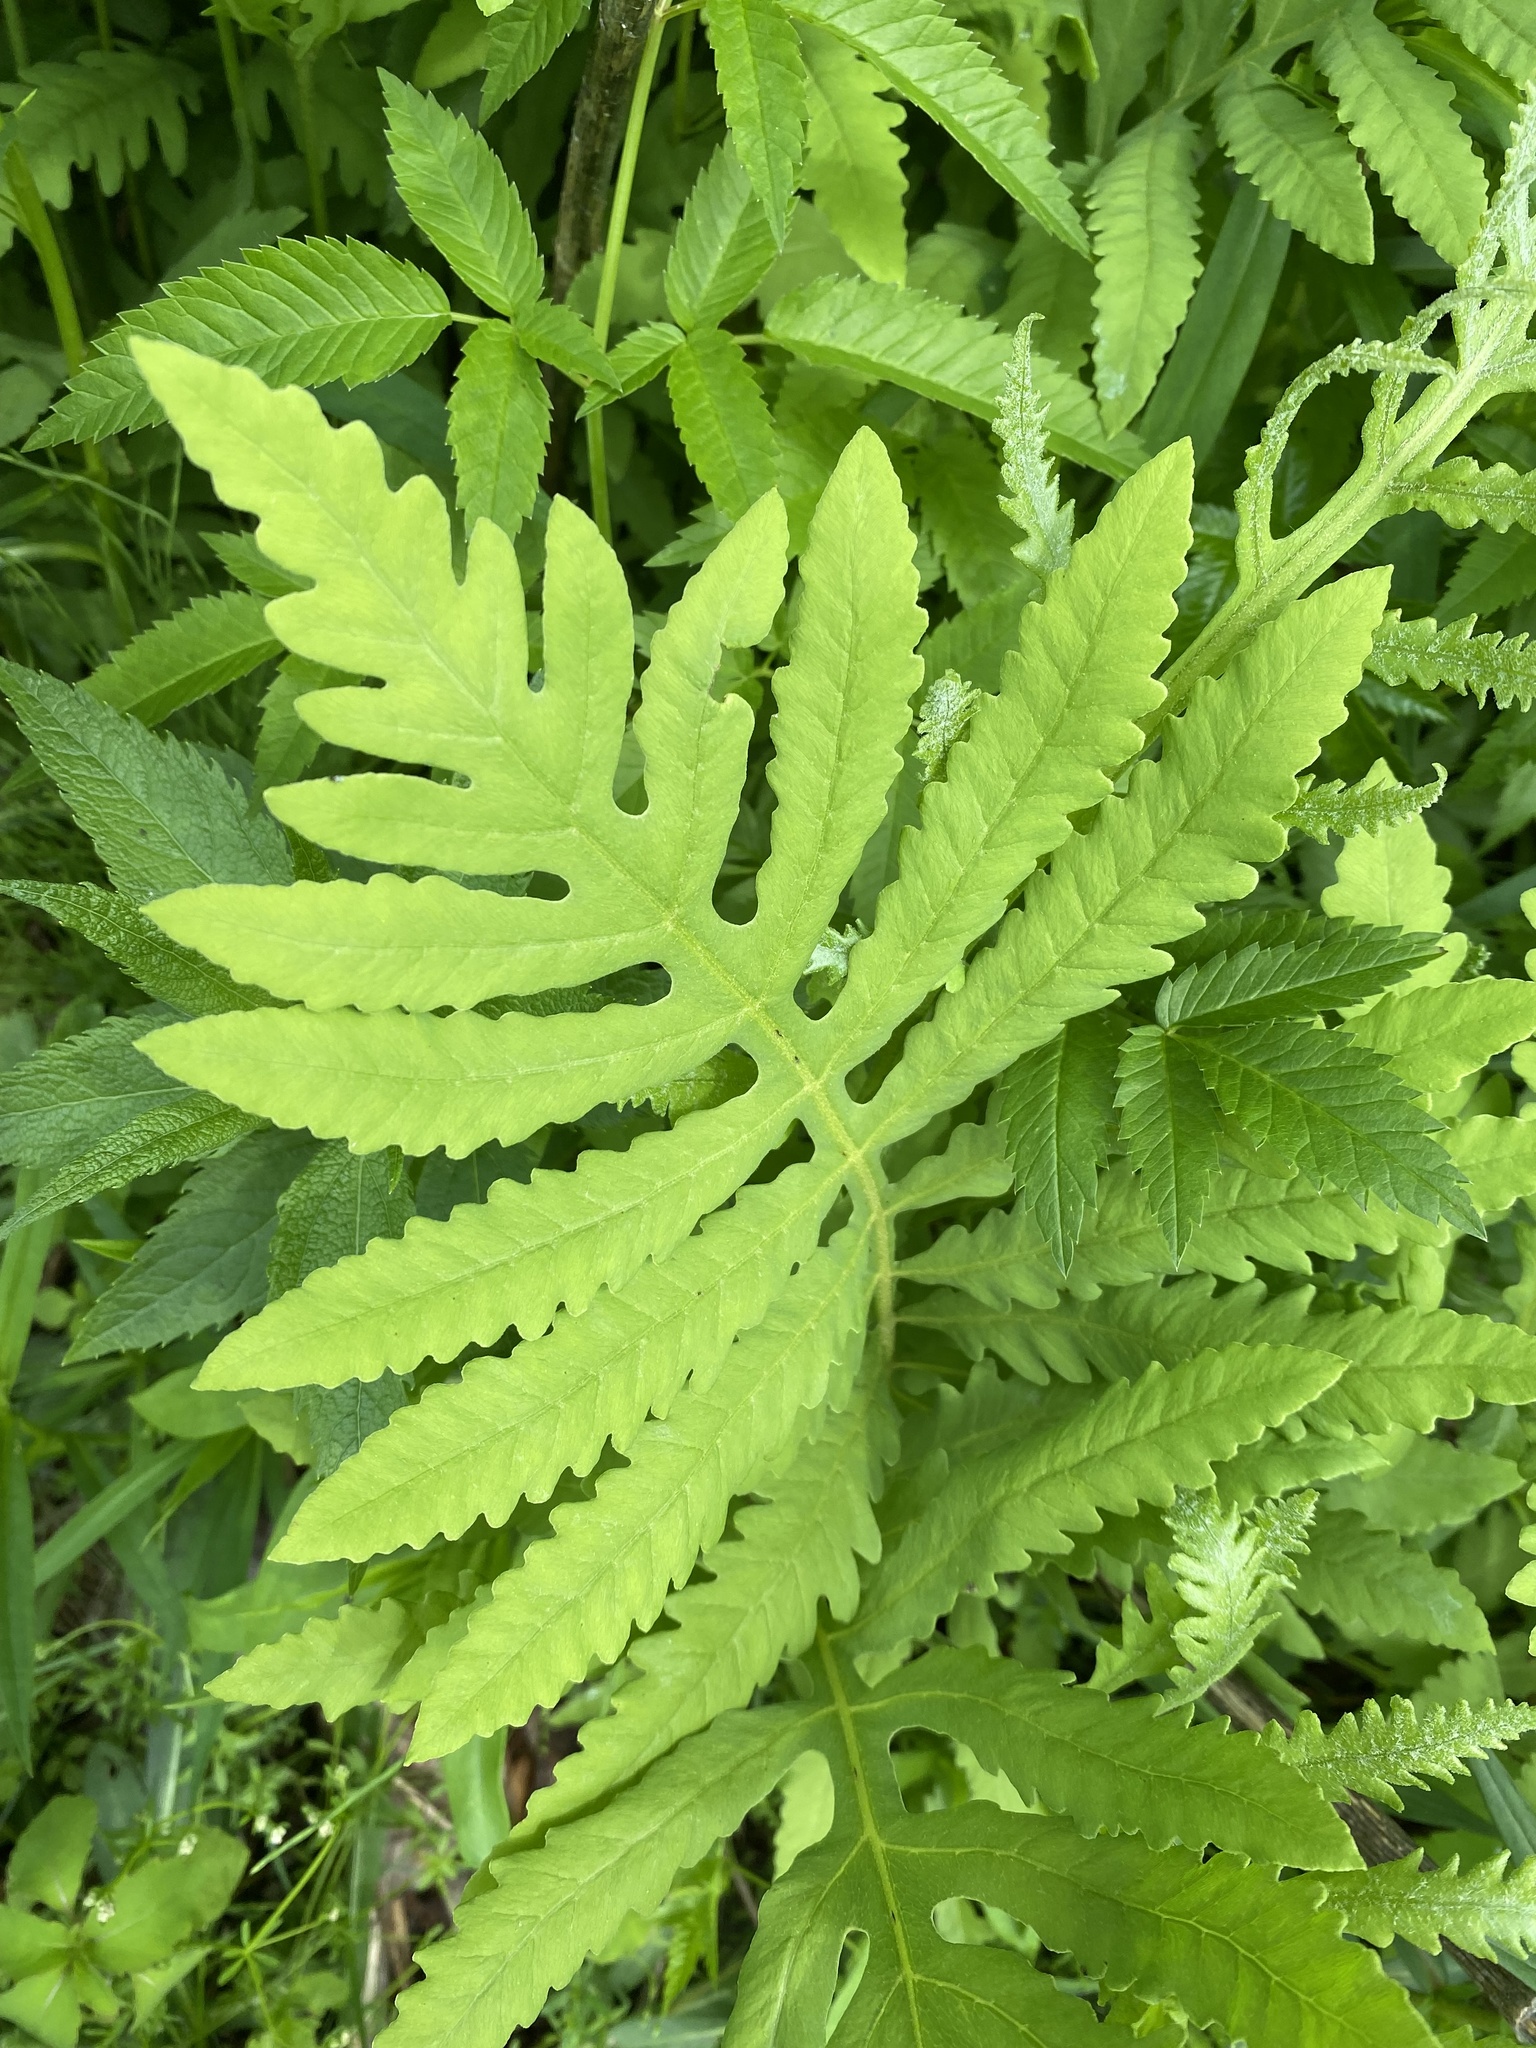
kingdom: Plantae
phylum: Tracheophyta
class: Polypodiopsida
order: Polypodiales
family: Onocleaceae
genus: Onoclea
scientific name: Onoclea sensibilis
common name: Sensitive fern
